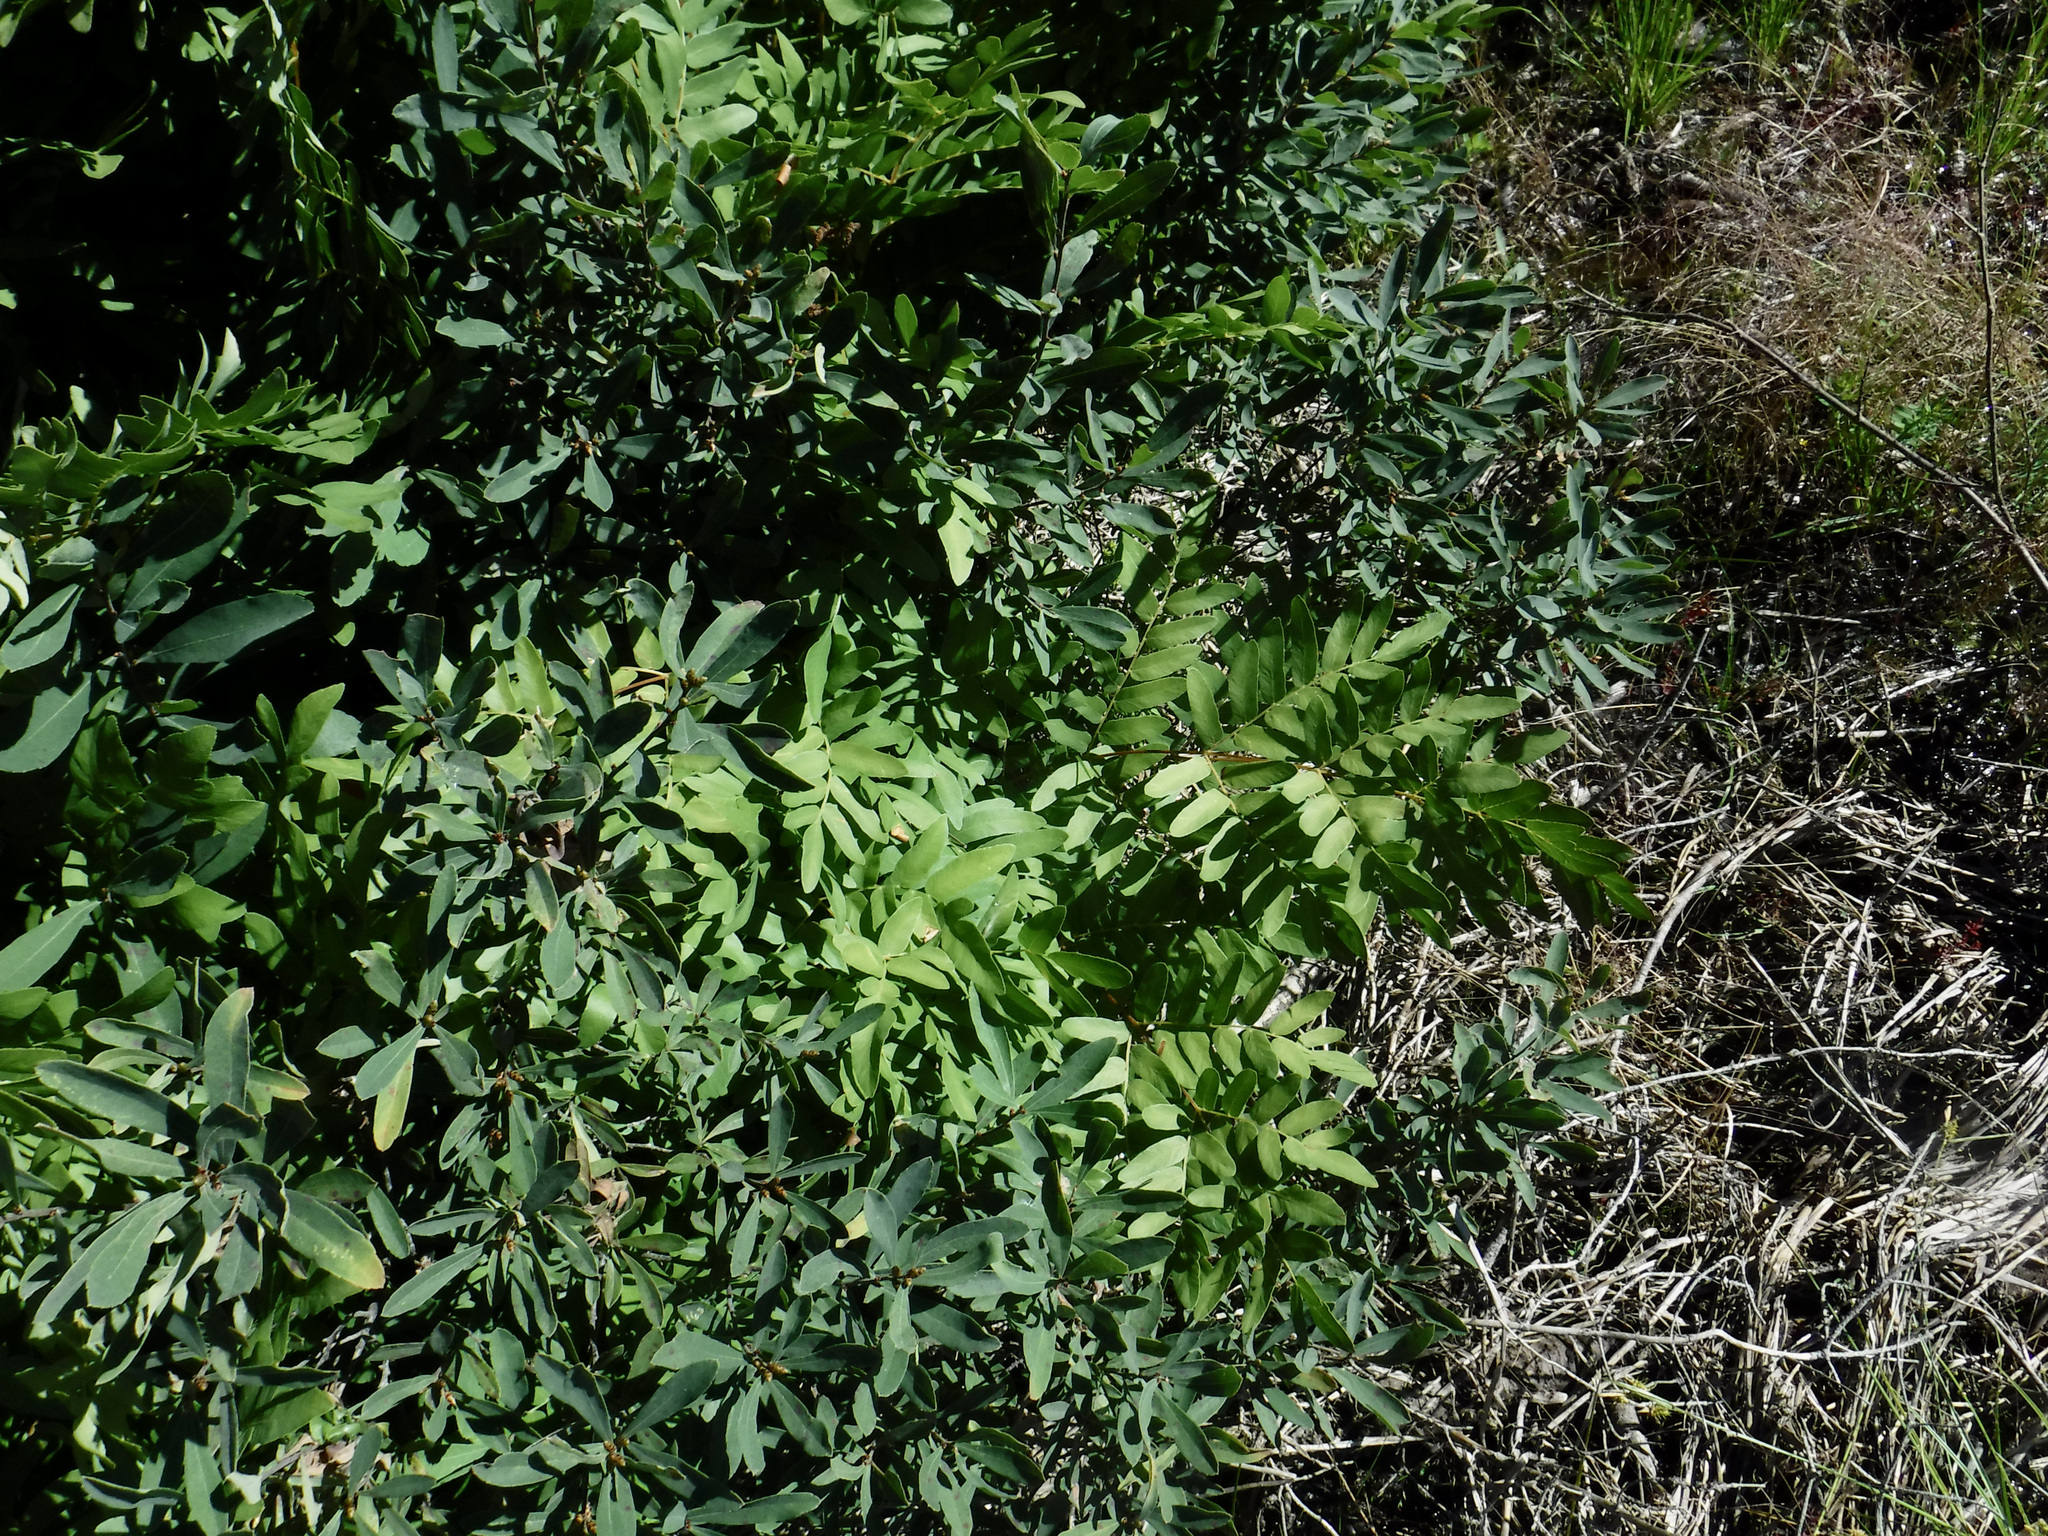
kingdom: Plantae
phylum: Tracheophyta
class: Polypodiopsida
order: Osmundales
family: Osmundaceae
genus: Osmunda
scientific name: Osmunda spectabilis
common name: American royal fern
